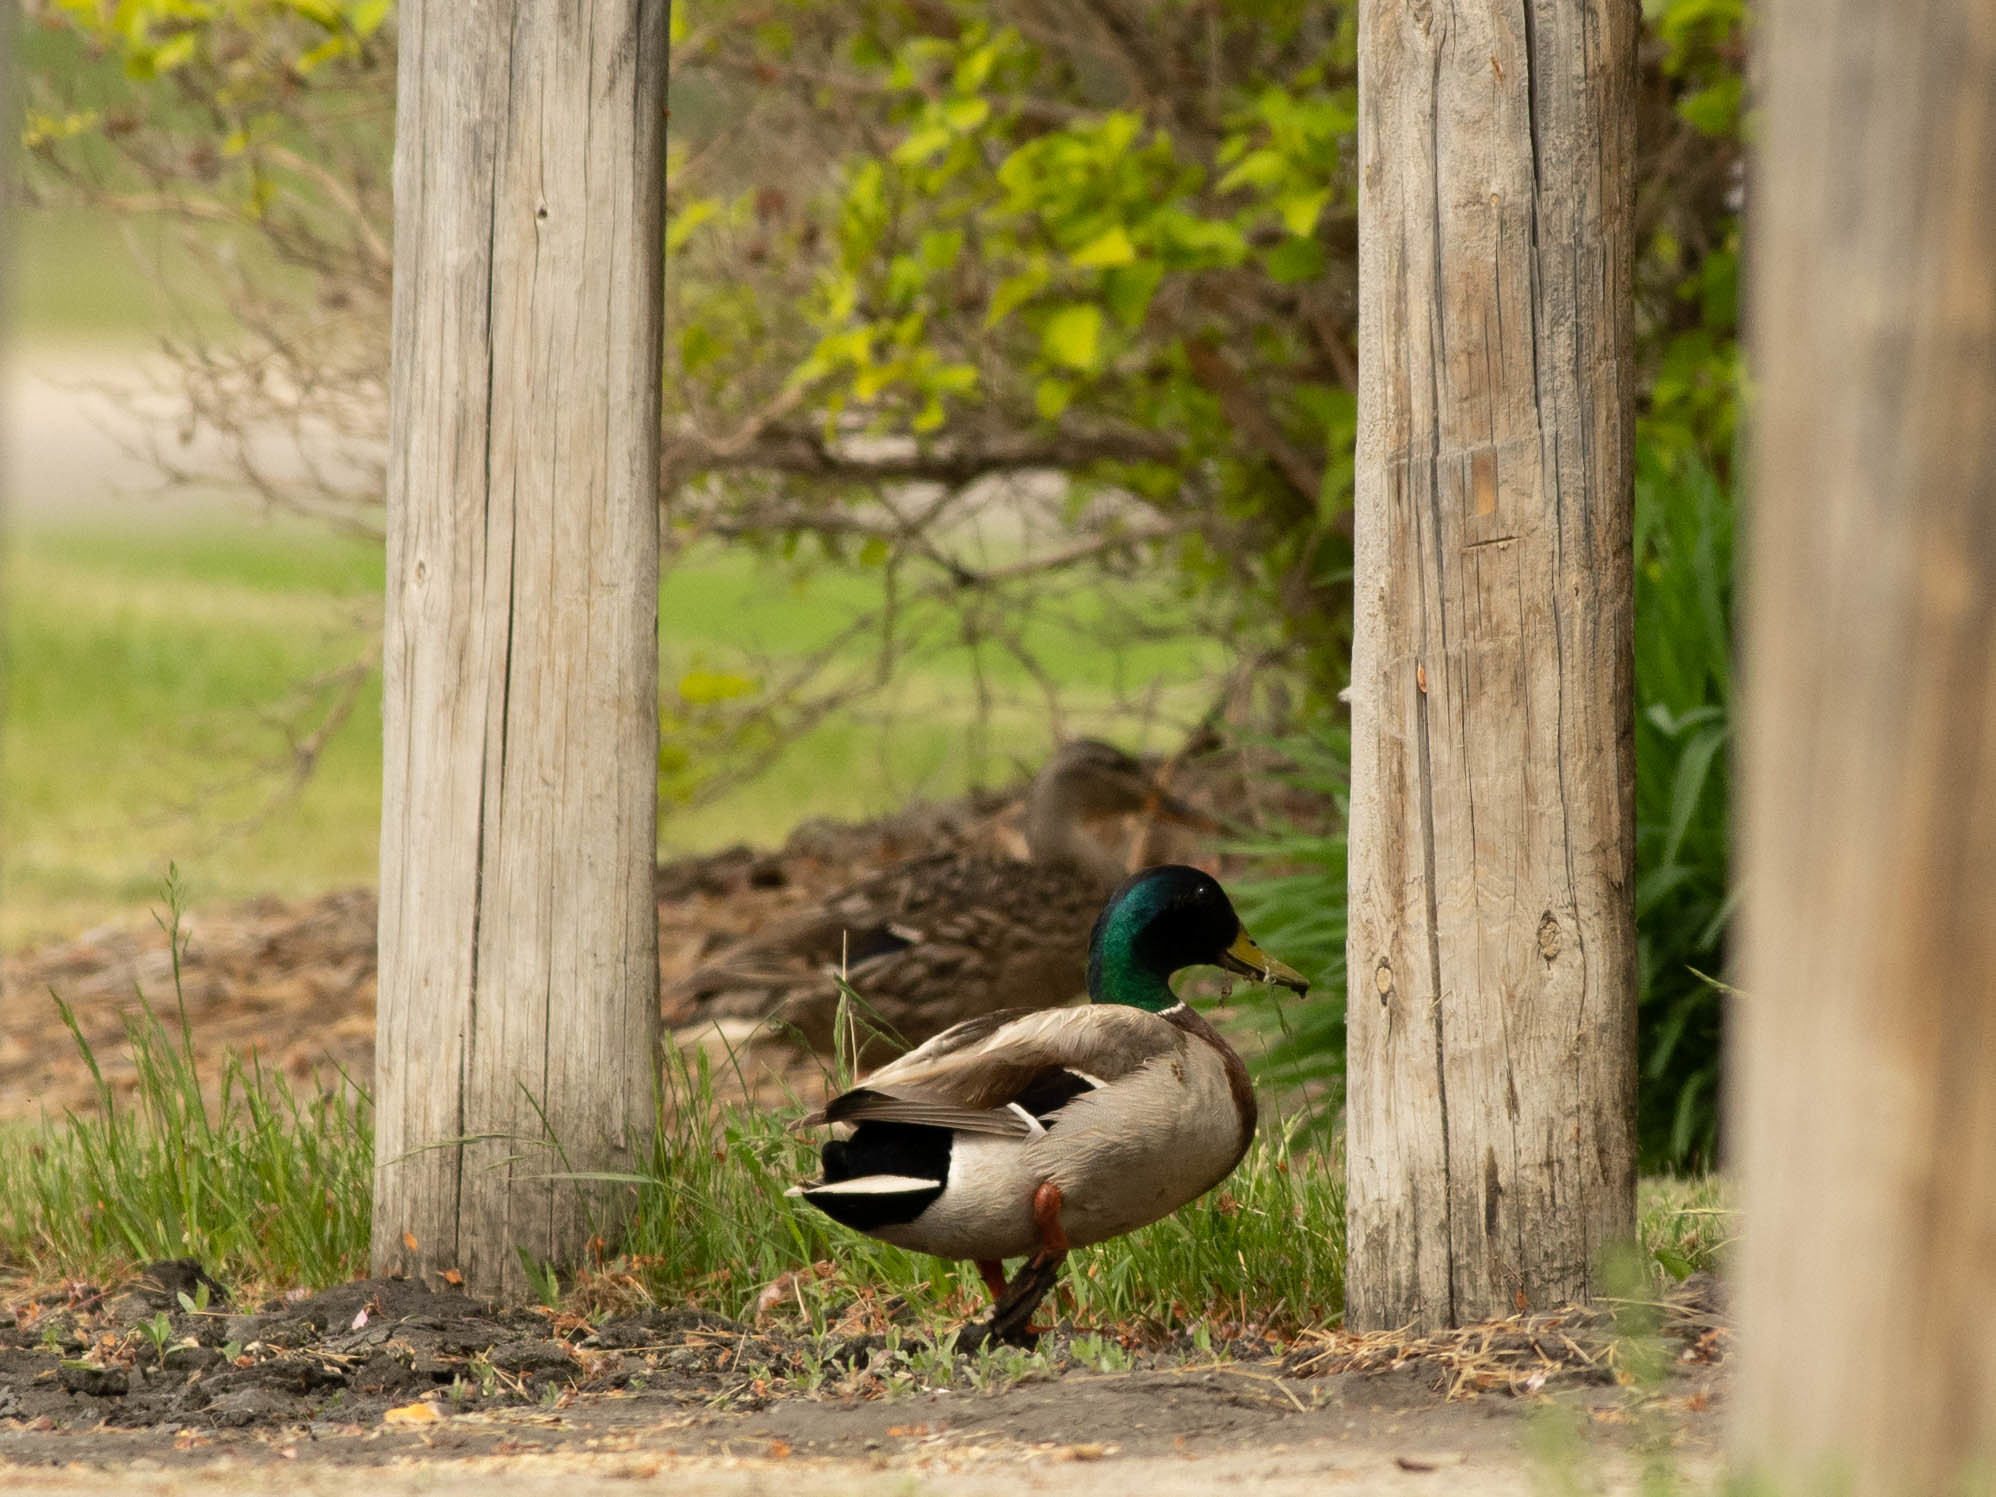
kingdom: Animalia
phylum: Chordata
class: Aves
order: Anseriformes
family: Anatidae
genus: Anas
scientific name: Anas platyrhynchos
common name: Mallard
